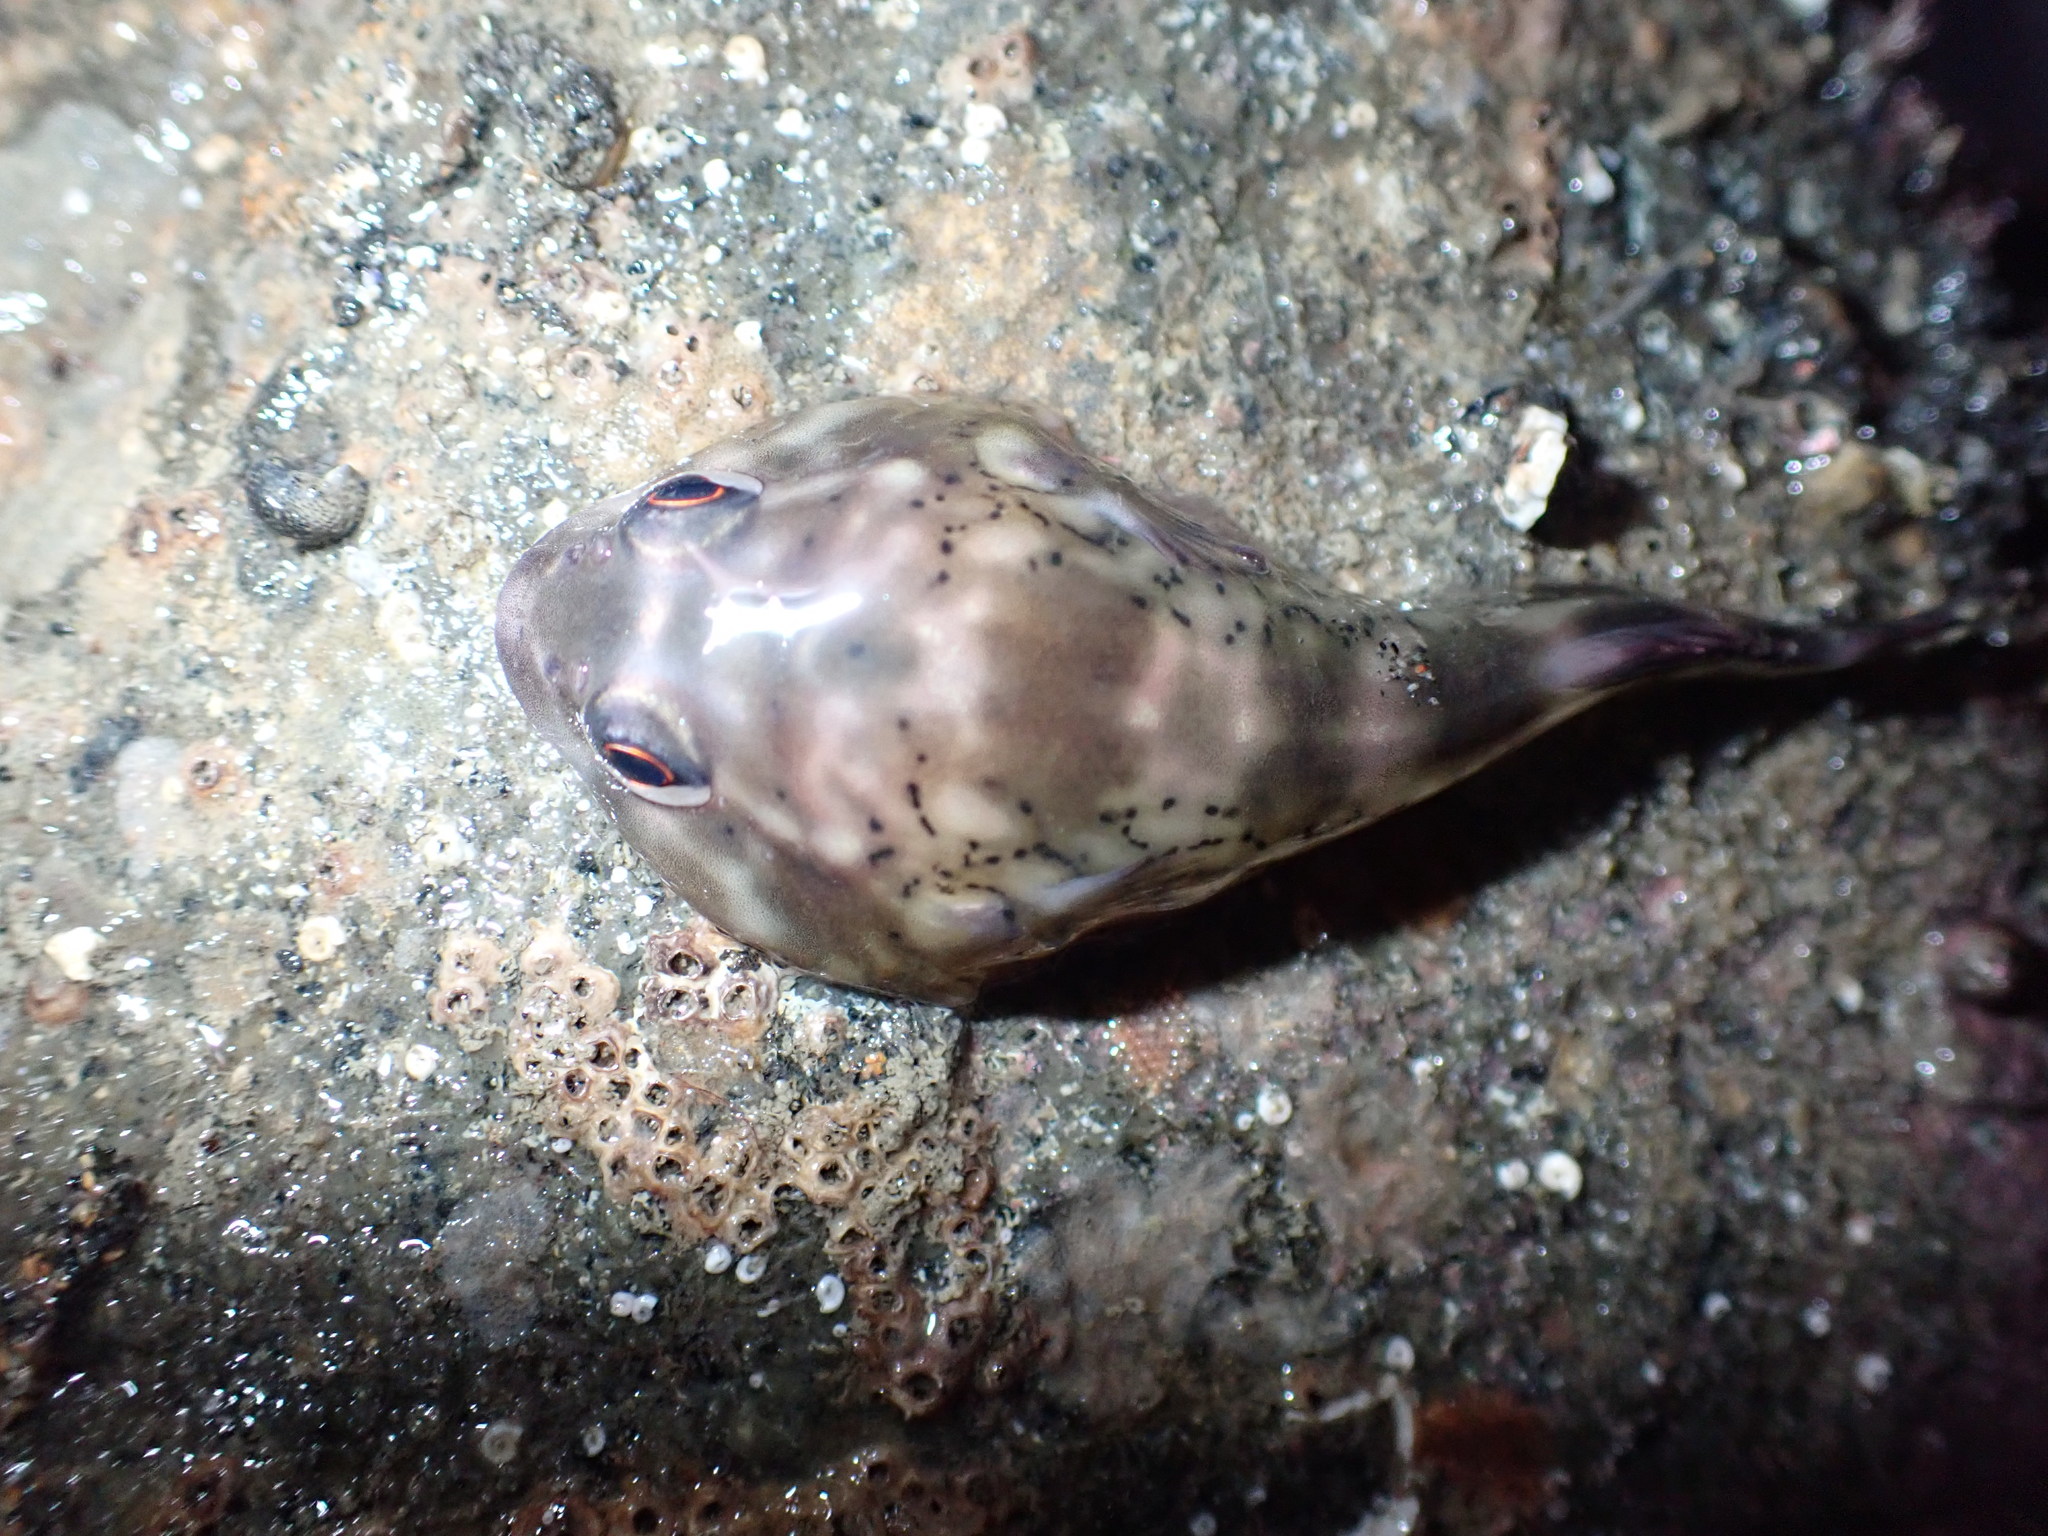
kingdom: Animalia
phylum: Chordata
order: Gobiesociformes
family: Gobiesocidae
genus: Diplocrepis
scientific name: Diplocrepis puniceus
